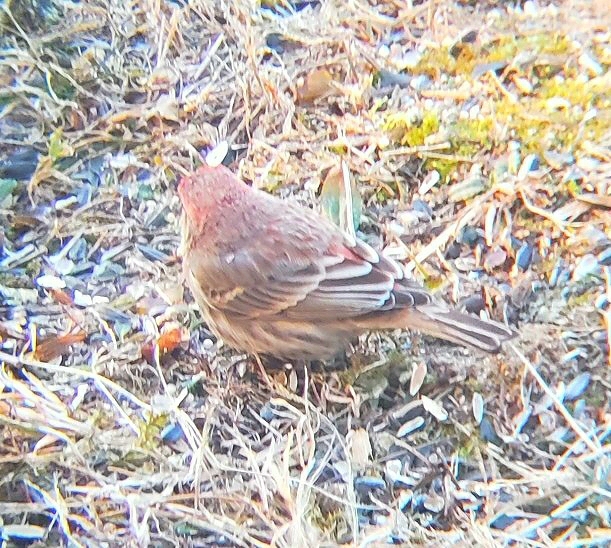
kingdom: Animalia
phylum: Chordata
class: Aves
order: Passeriformes
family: Fringillidae
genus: Haemorhous
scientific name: Haemorhous mexicanus
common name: House finch
